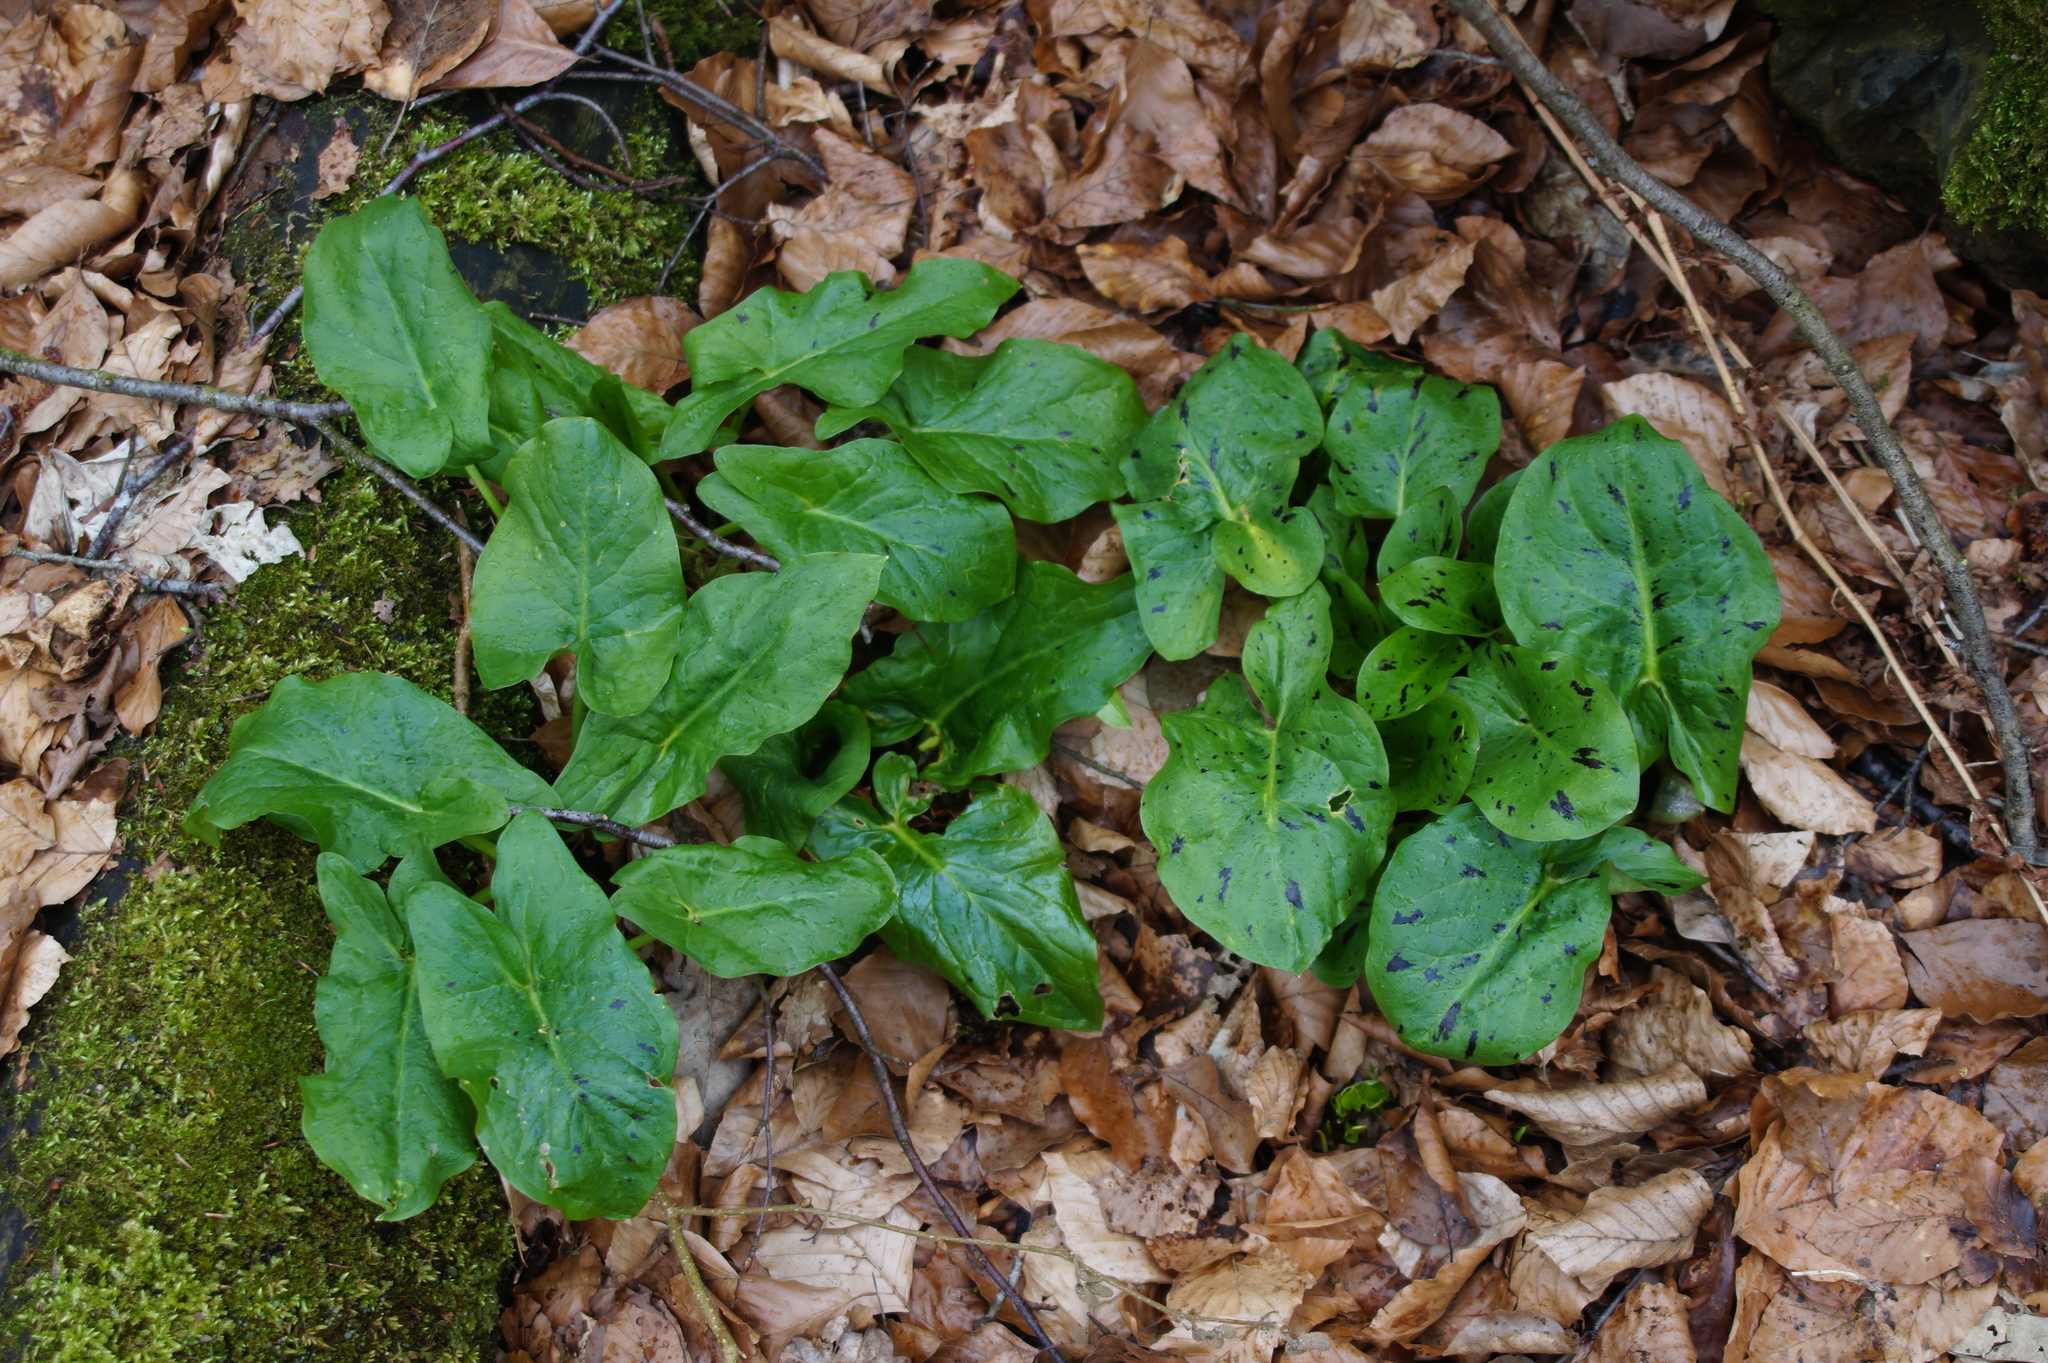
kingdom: Plantae
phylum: Tracheophyta
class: Liliopsida
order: Alismatales
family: Araceae
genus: Arum
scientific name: Arum maculatum
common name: Lords-and-ladies
